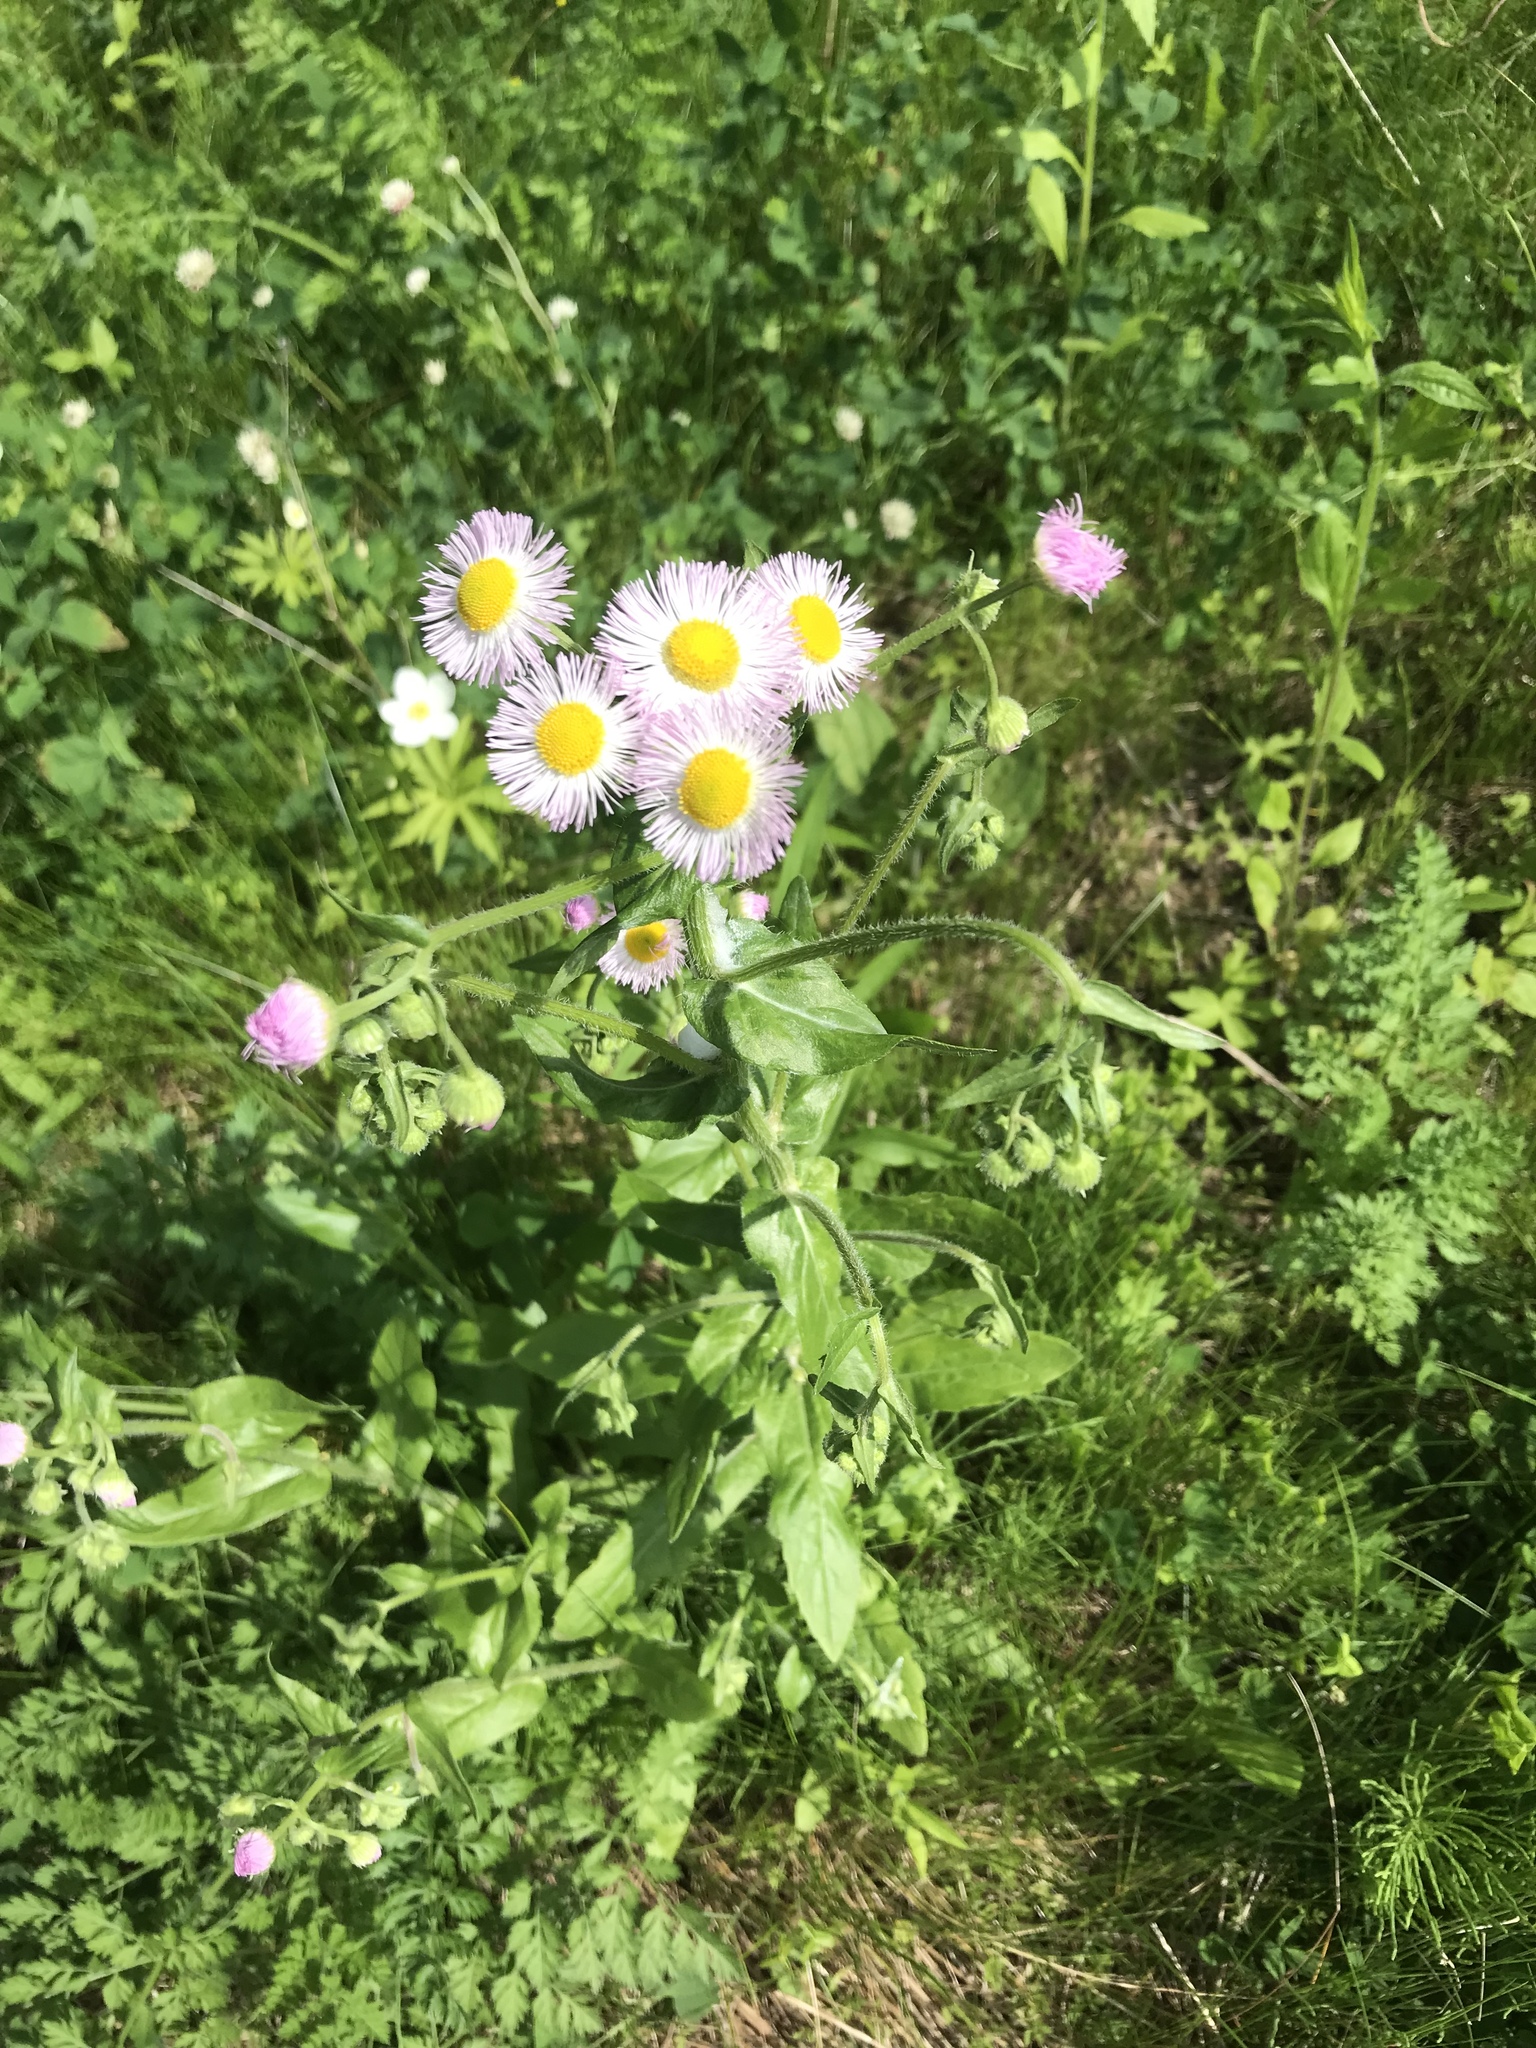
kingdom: Plantae
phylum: Tracheophyta
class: Magnoliopsida
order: Asterales
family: Asteraceae
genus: Erigeron
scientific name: Erigeron philadelphicus
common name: Robin's-plantain
